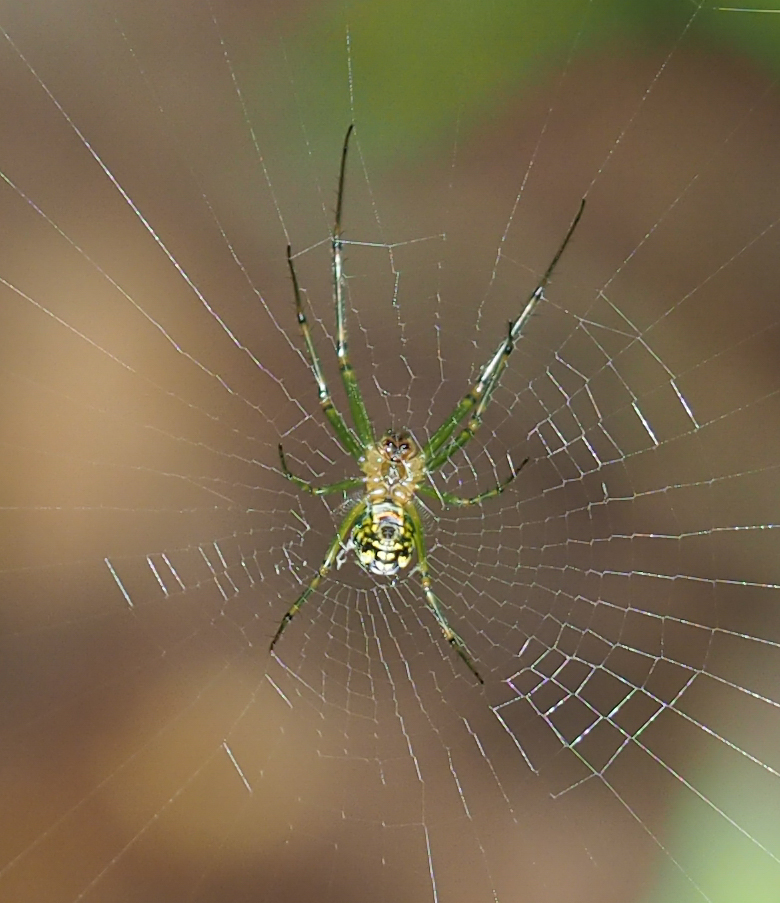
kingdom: Animalia
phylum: Arthropoda
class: Arachnida
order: Araneae
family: Tetragnathidae
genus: Leucauge
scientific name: Leucauge venusta
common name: Longjawed orb weavers
